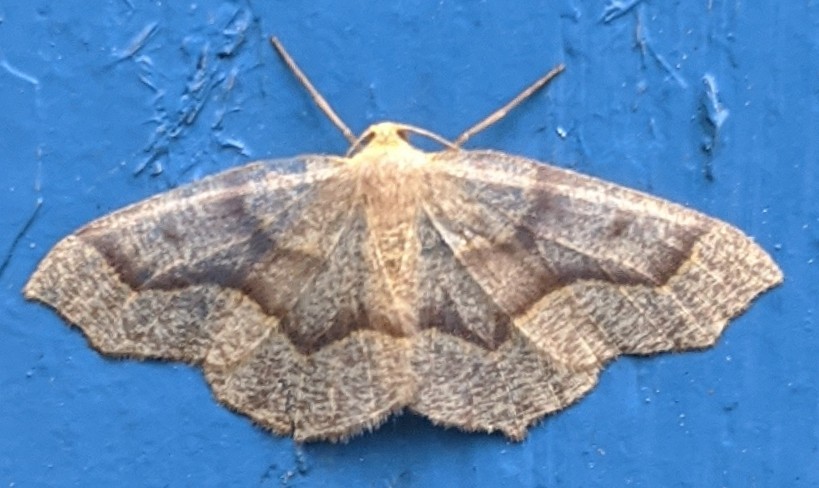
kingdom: Animalia
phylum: Arthropoda
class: Insecta
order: Lepidoptera
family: Geometridae
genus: Lambdina
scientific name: Lambdina fiscellaria
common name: Hemlock looper
